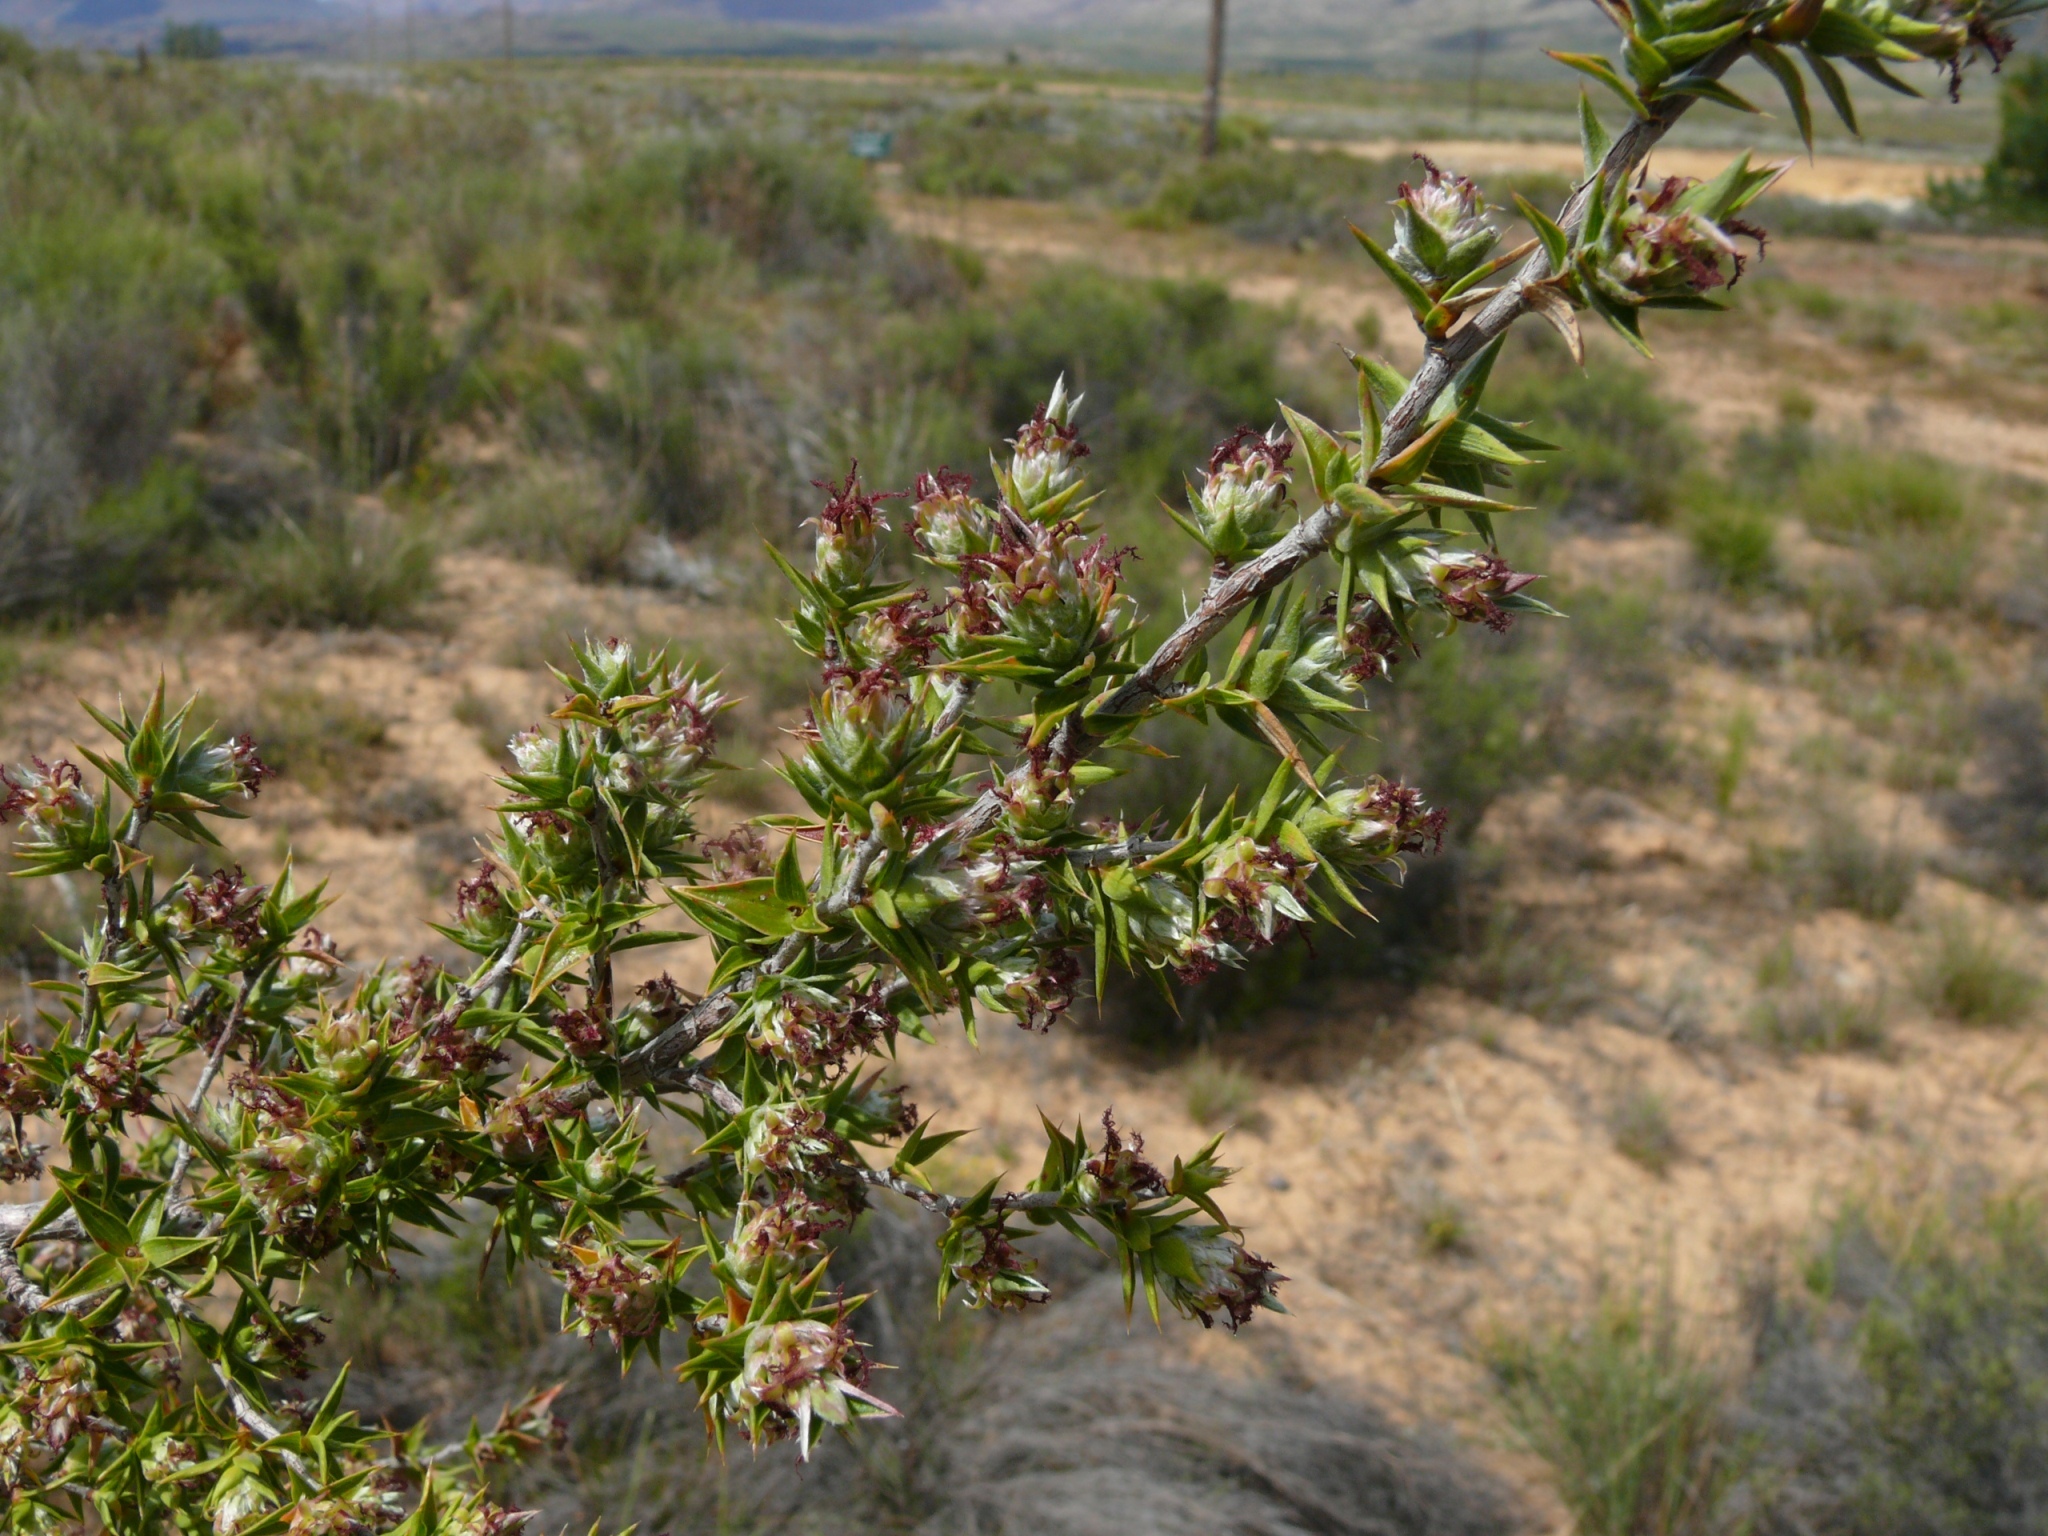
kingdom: Plantae
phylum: Tracheophyta
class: Magnoliopsida
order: Rosales
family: Rosaceae
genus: Cliffortia
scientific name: Cliffortia ruscifolia
